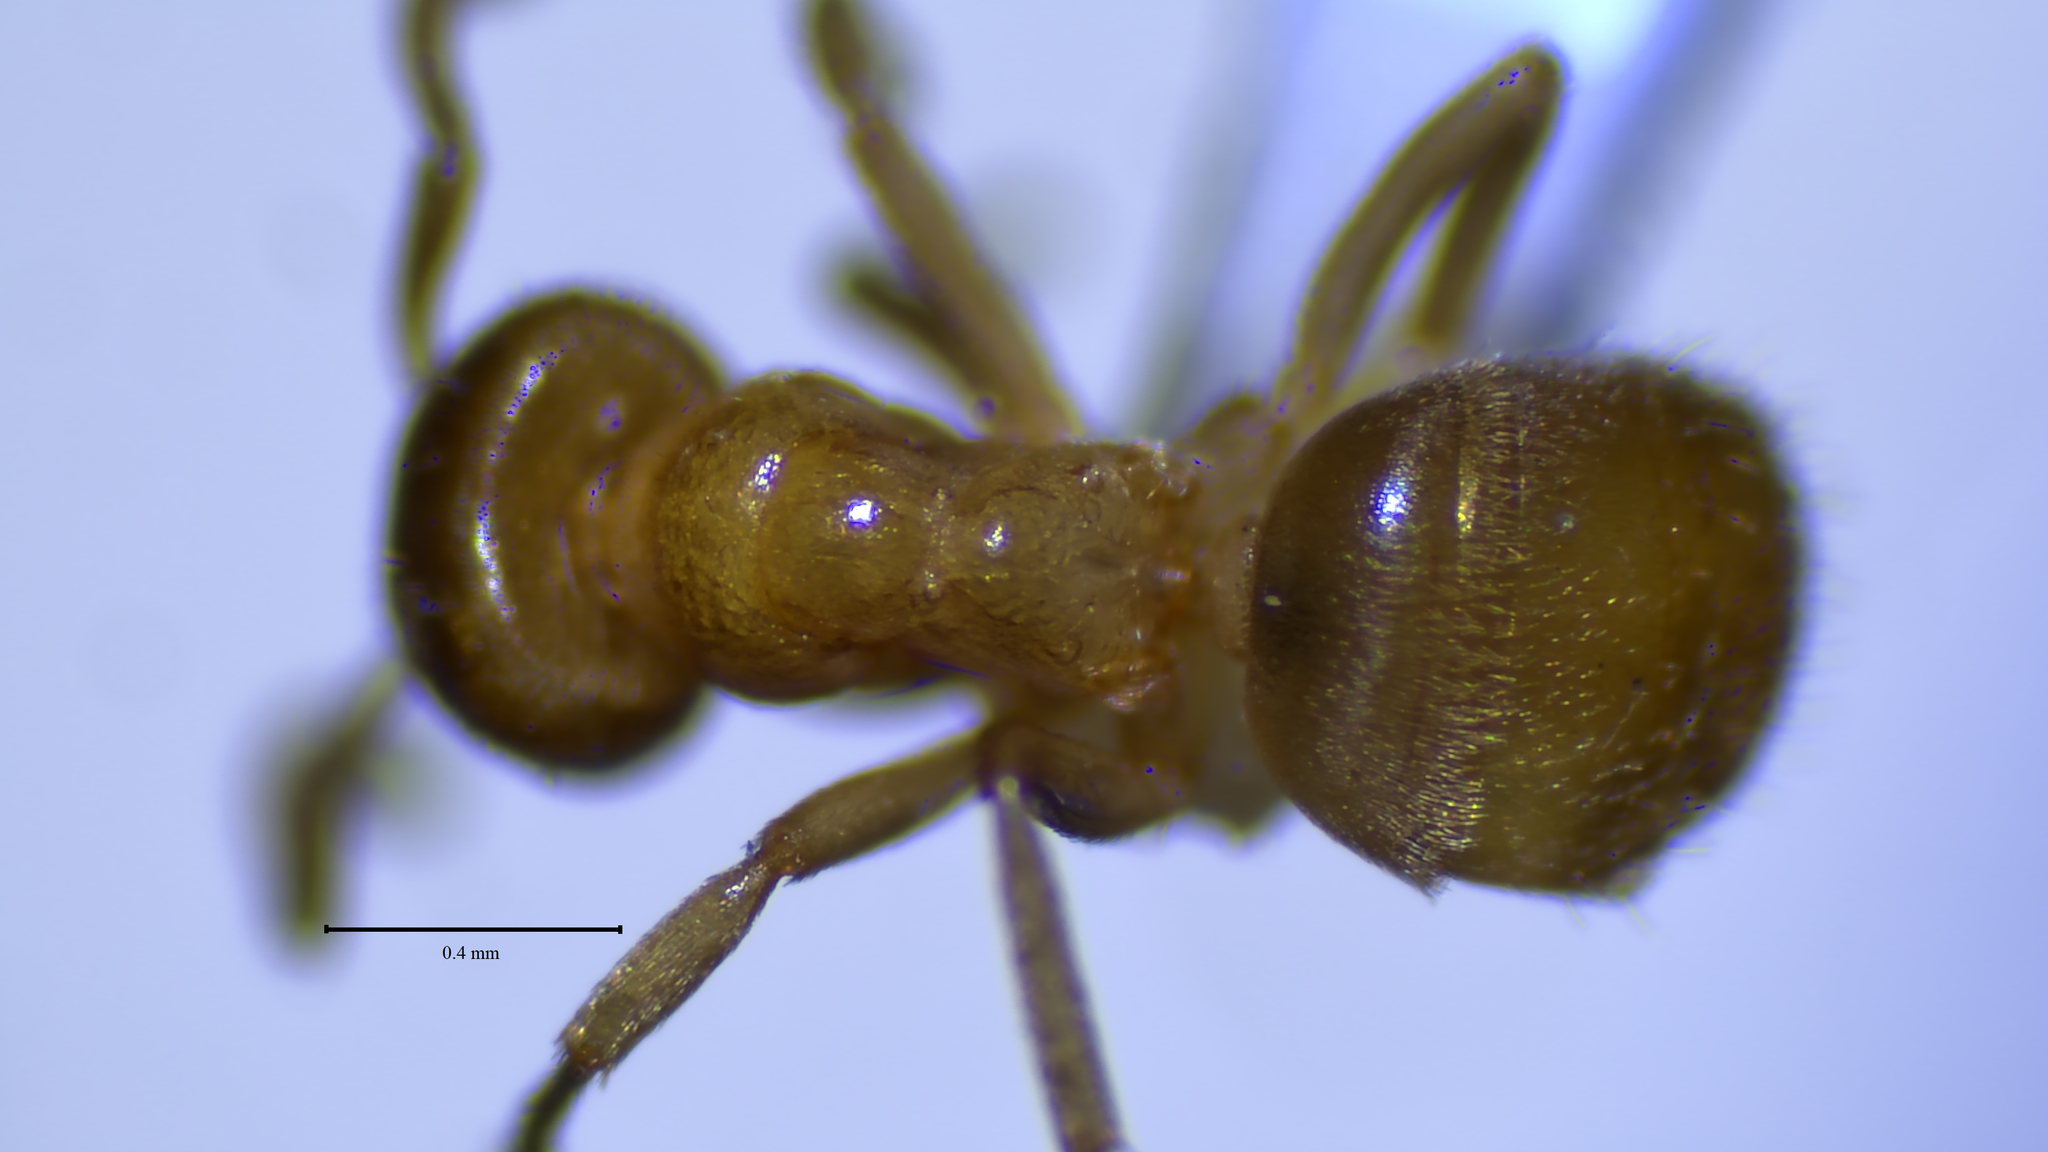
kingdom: Animalia
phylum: Arthropoda
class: Insecta
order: Hymenoptera
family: Formicidae
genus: Lasius
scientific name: Lasius
